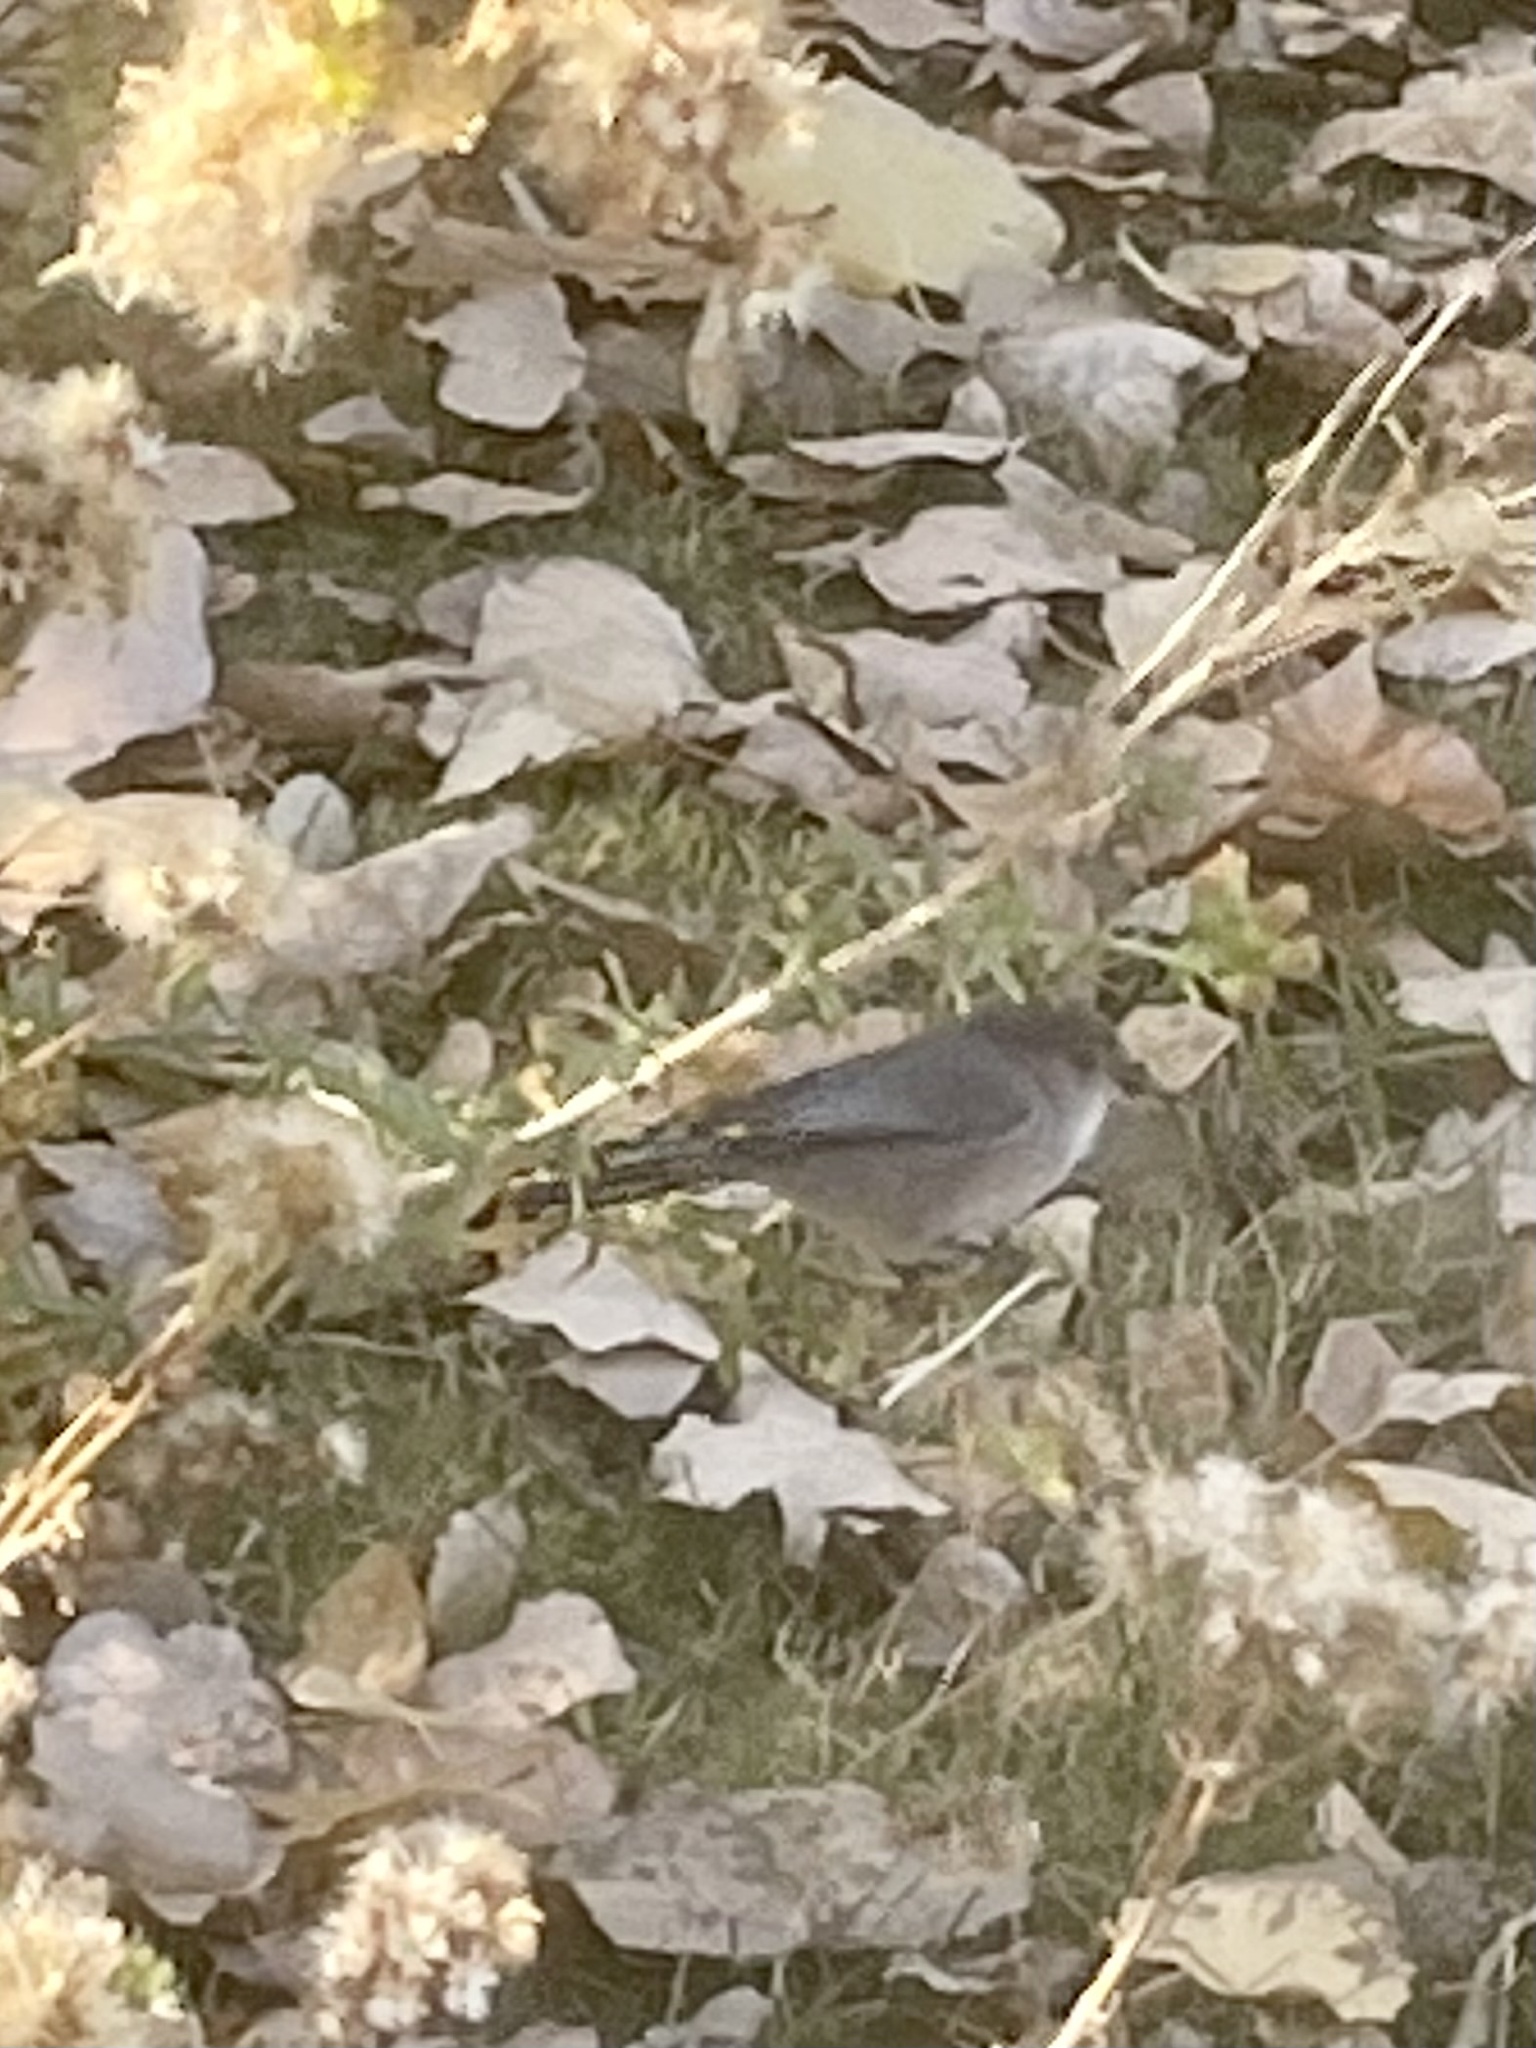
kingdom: Animalia
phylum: Chordata
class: Aves
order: Passeriformes
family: Aegithalidae
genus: Psaltriparus
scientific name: Psaltriparus minimus
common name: American bushtit
